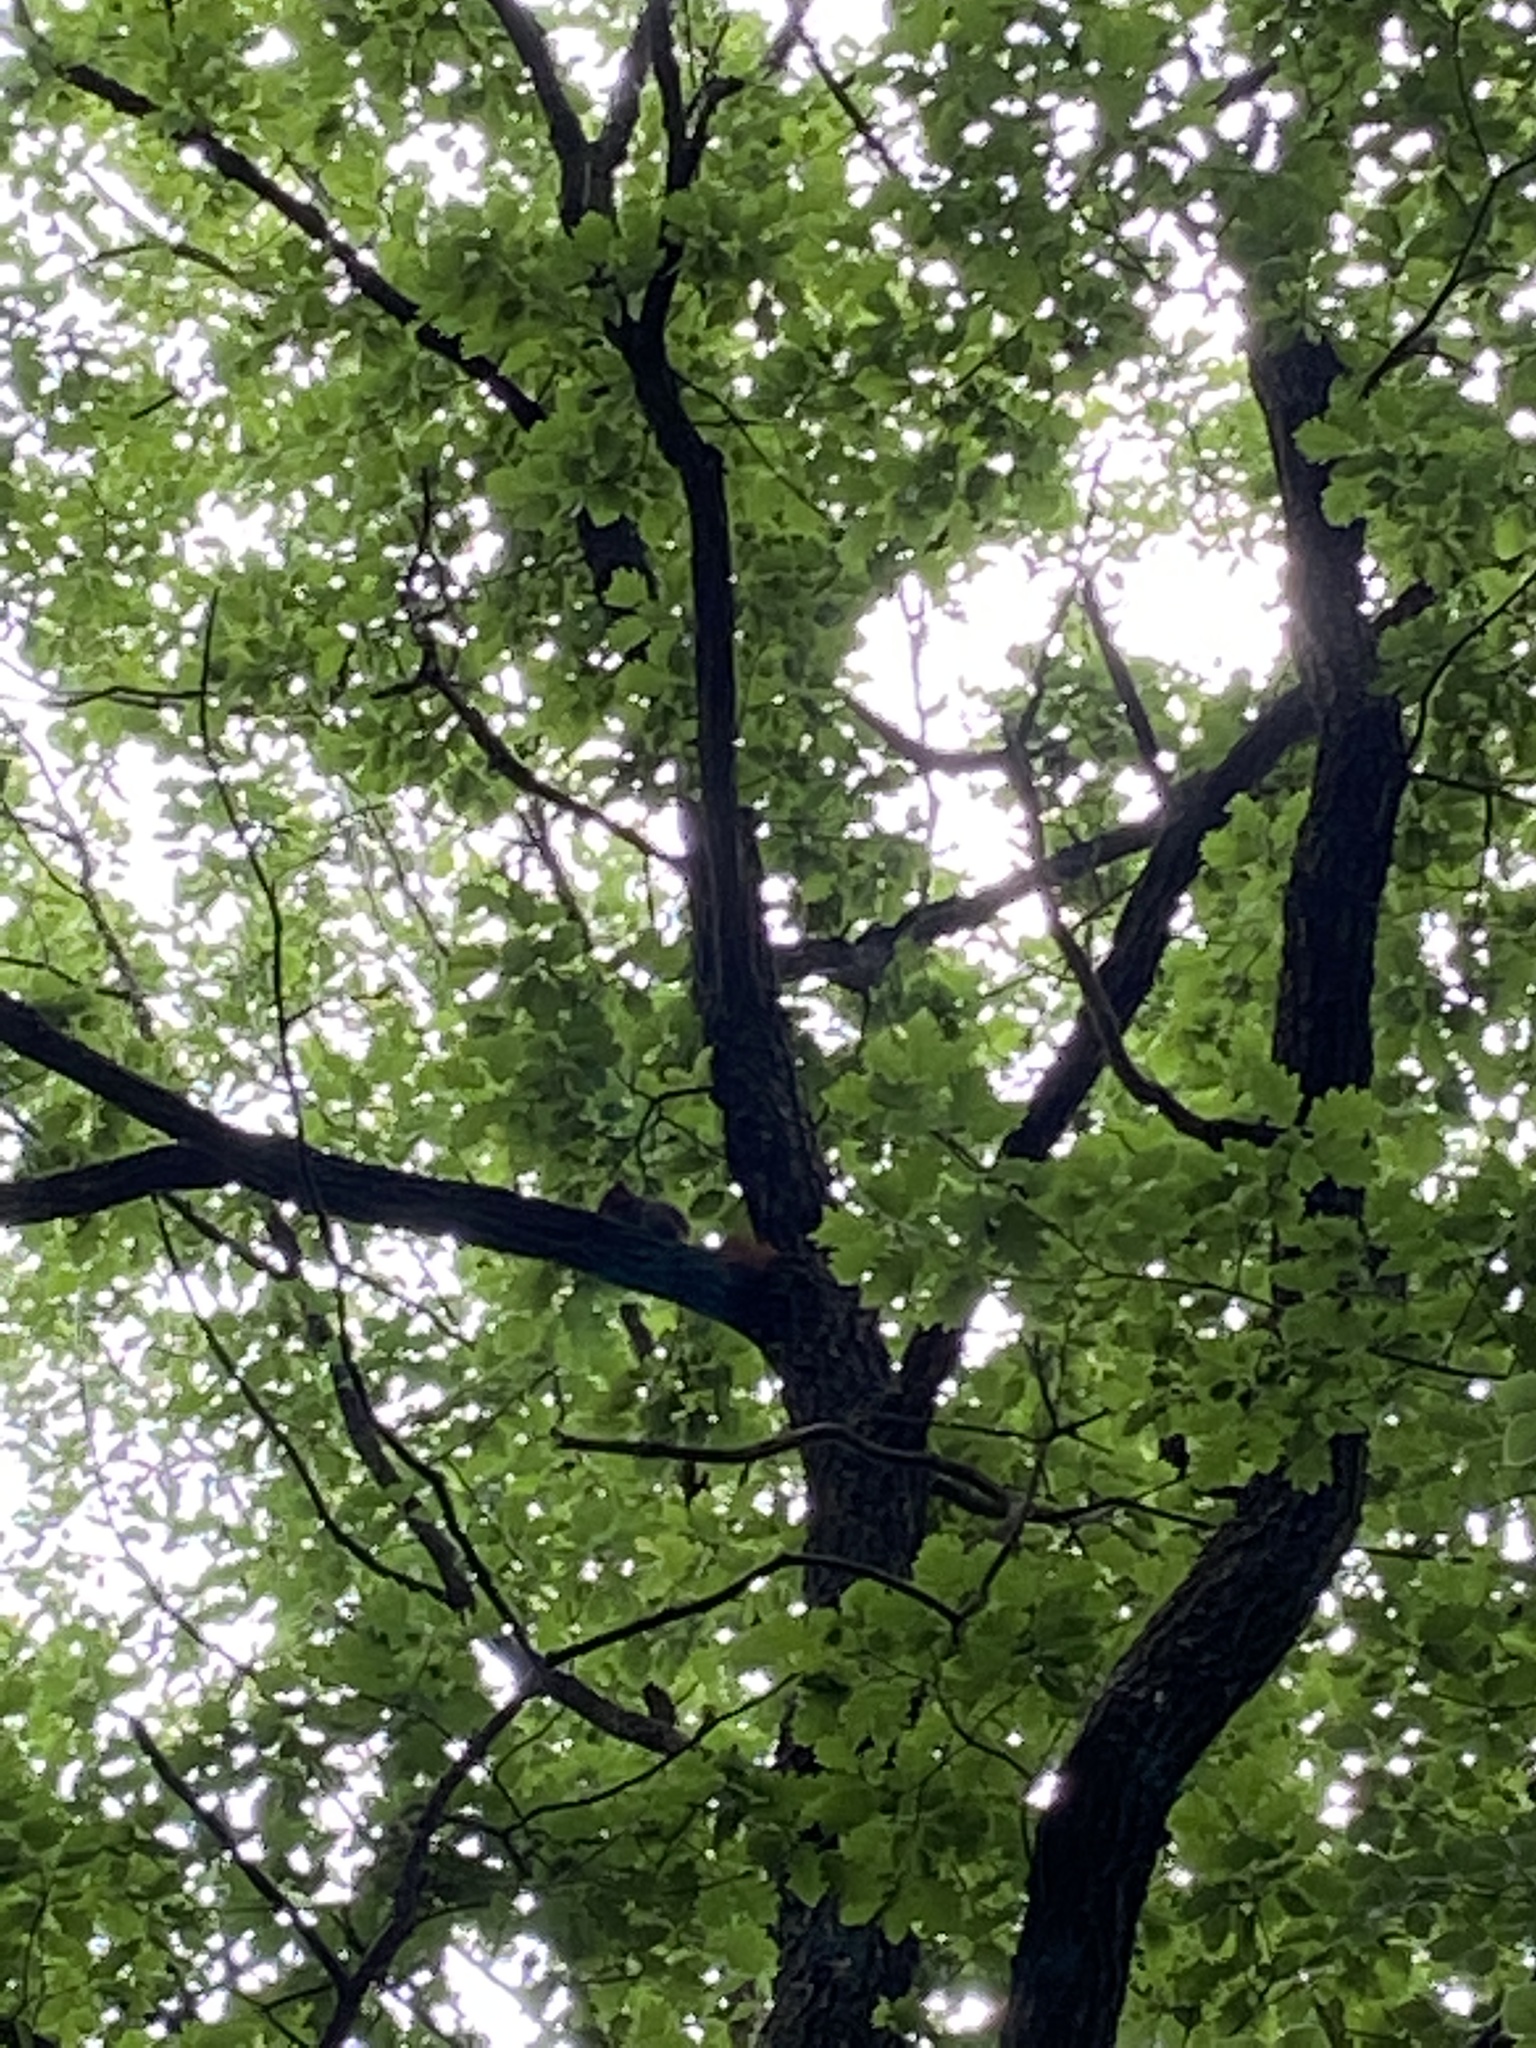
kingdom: Animalia
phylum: Chordata
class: Mammalia
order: Rodentia
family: Sciuridae
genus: Sciurus
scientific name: Sciurus vulgaris
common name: Eurasian red squirrel
